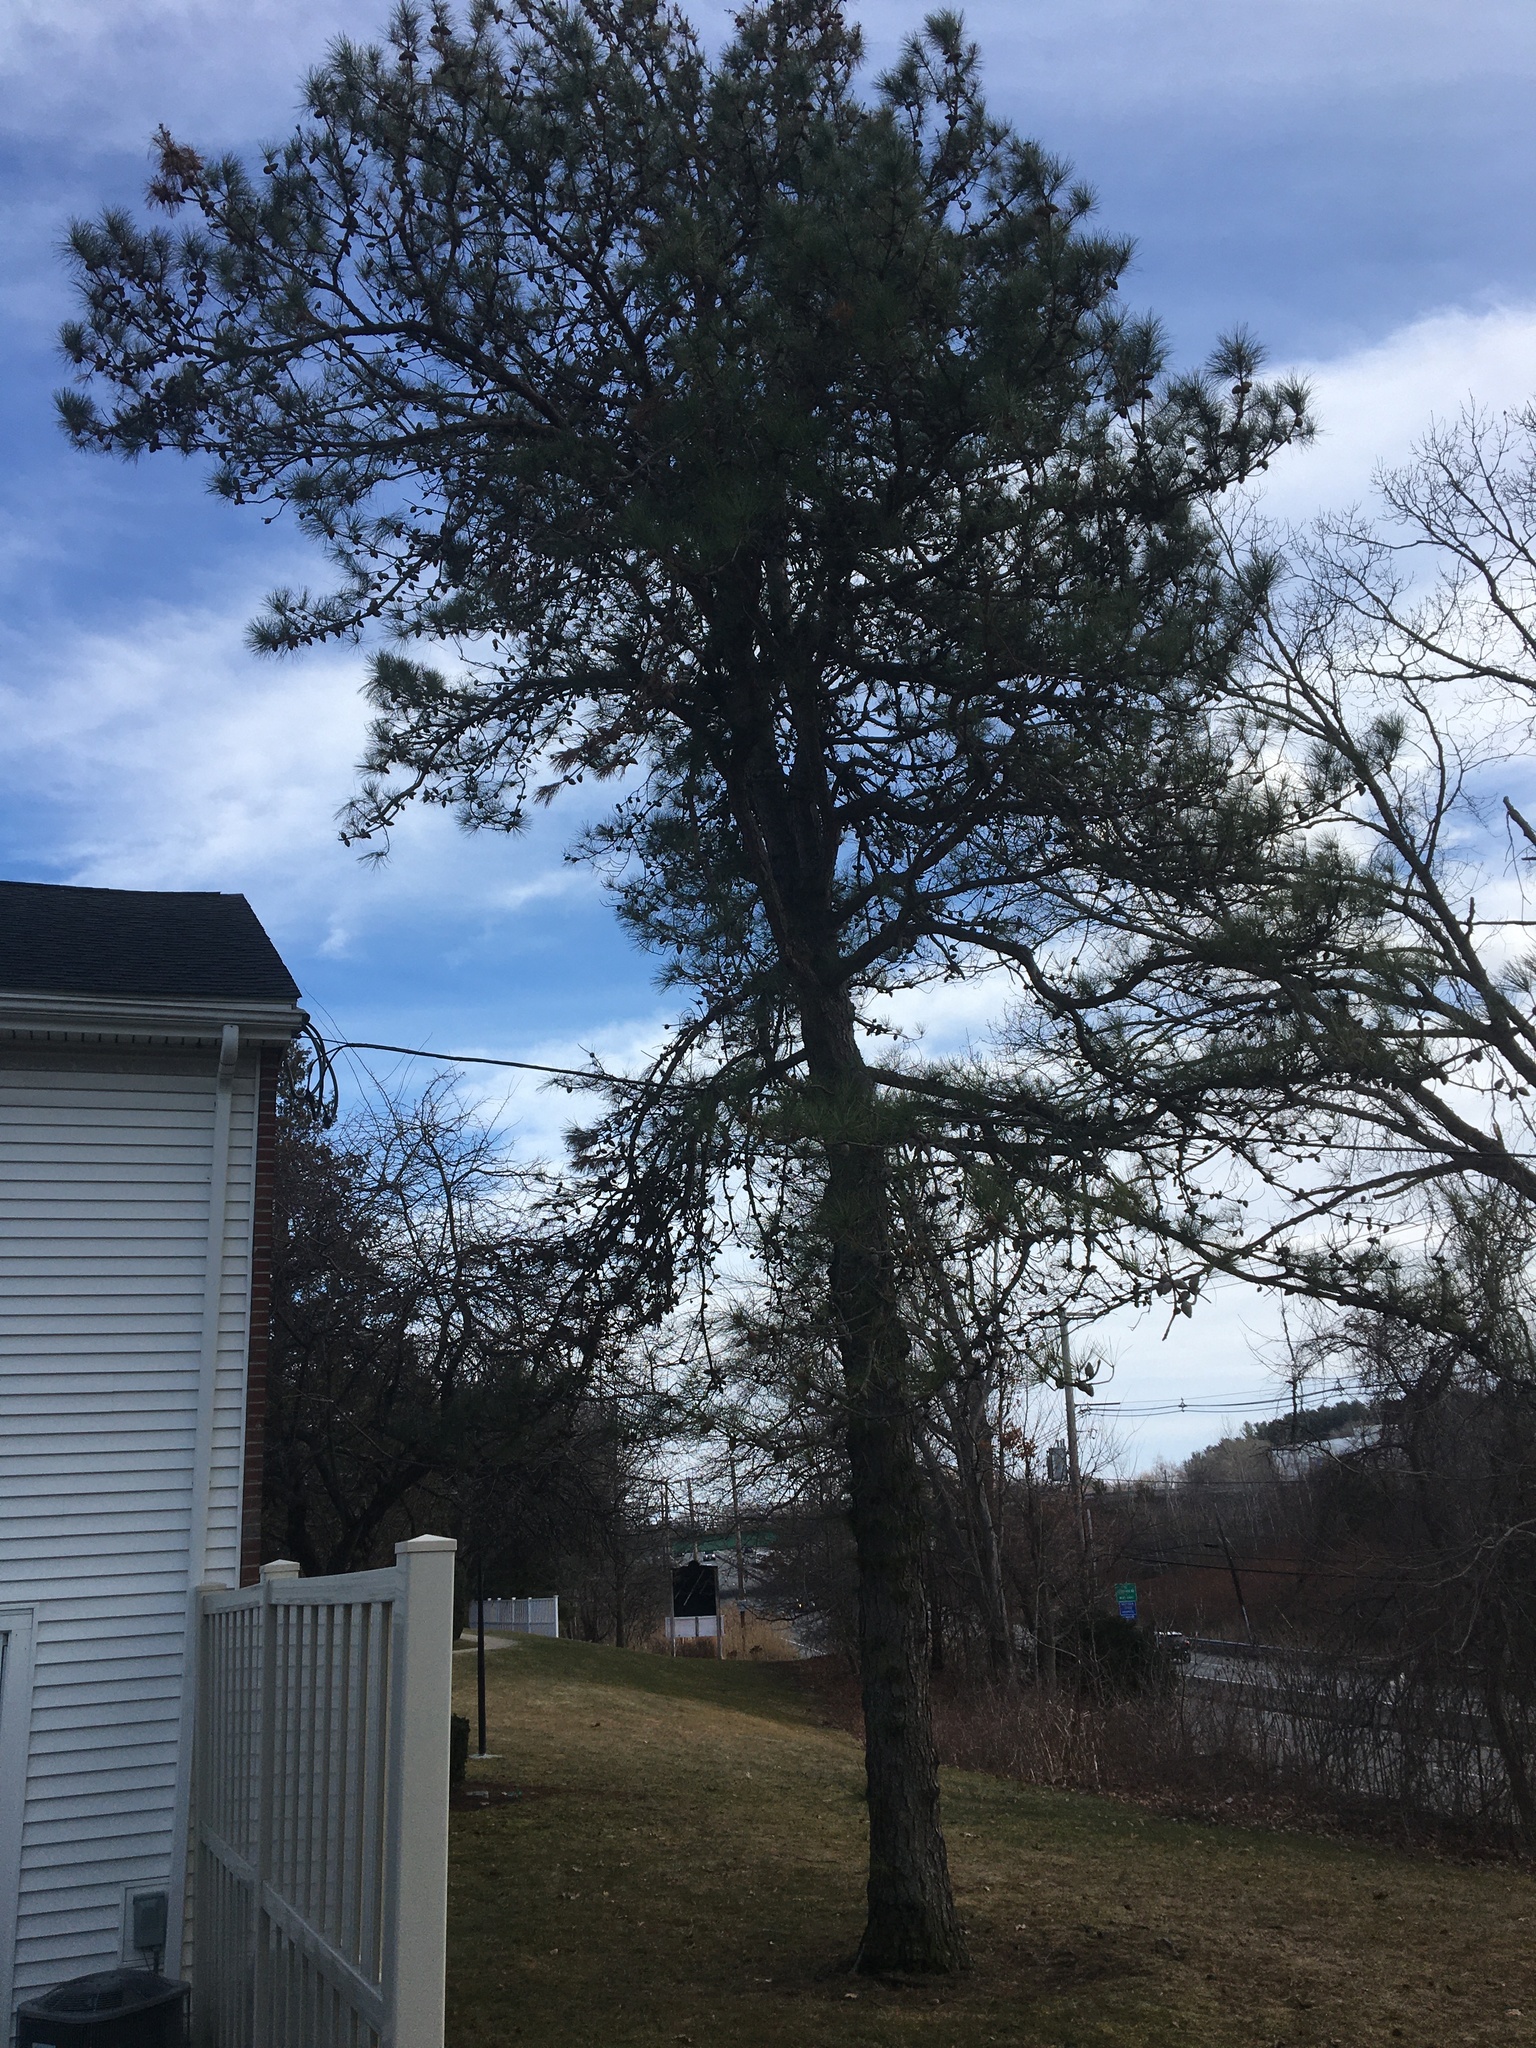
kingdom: Plantae
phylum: Tracheophyta
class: Pinopsida
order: Pinales
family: Pinaceae
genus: Pinus
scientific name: Pinus rigida
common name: Pitch pine
